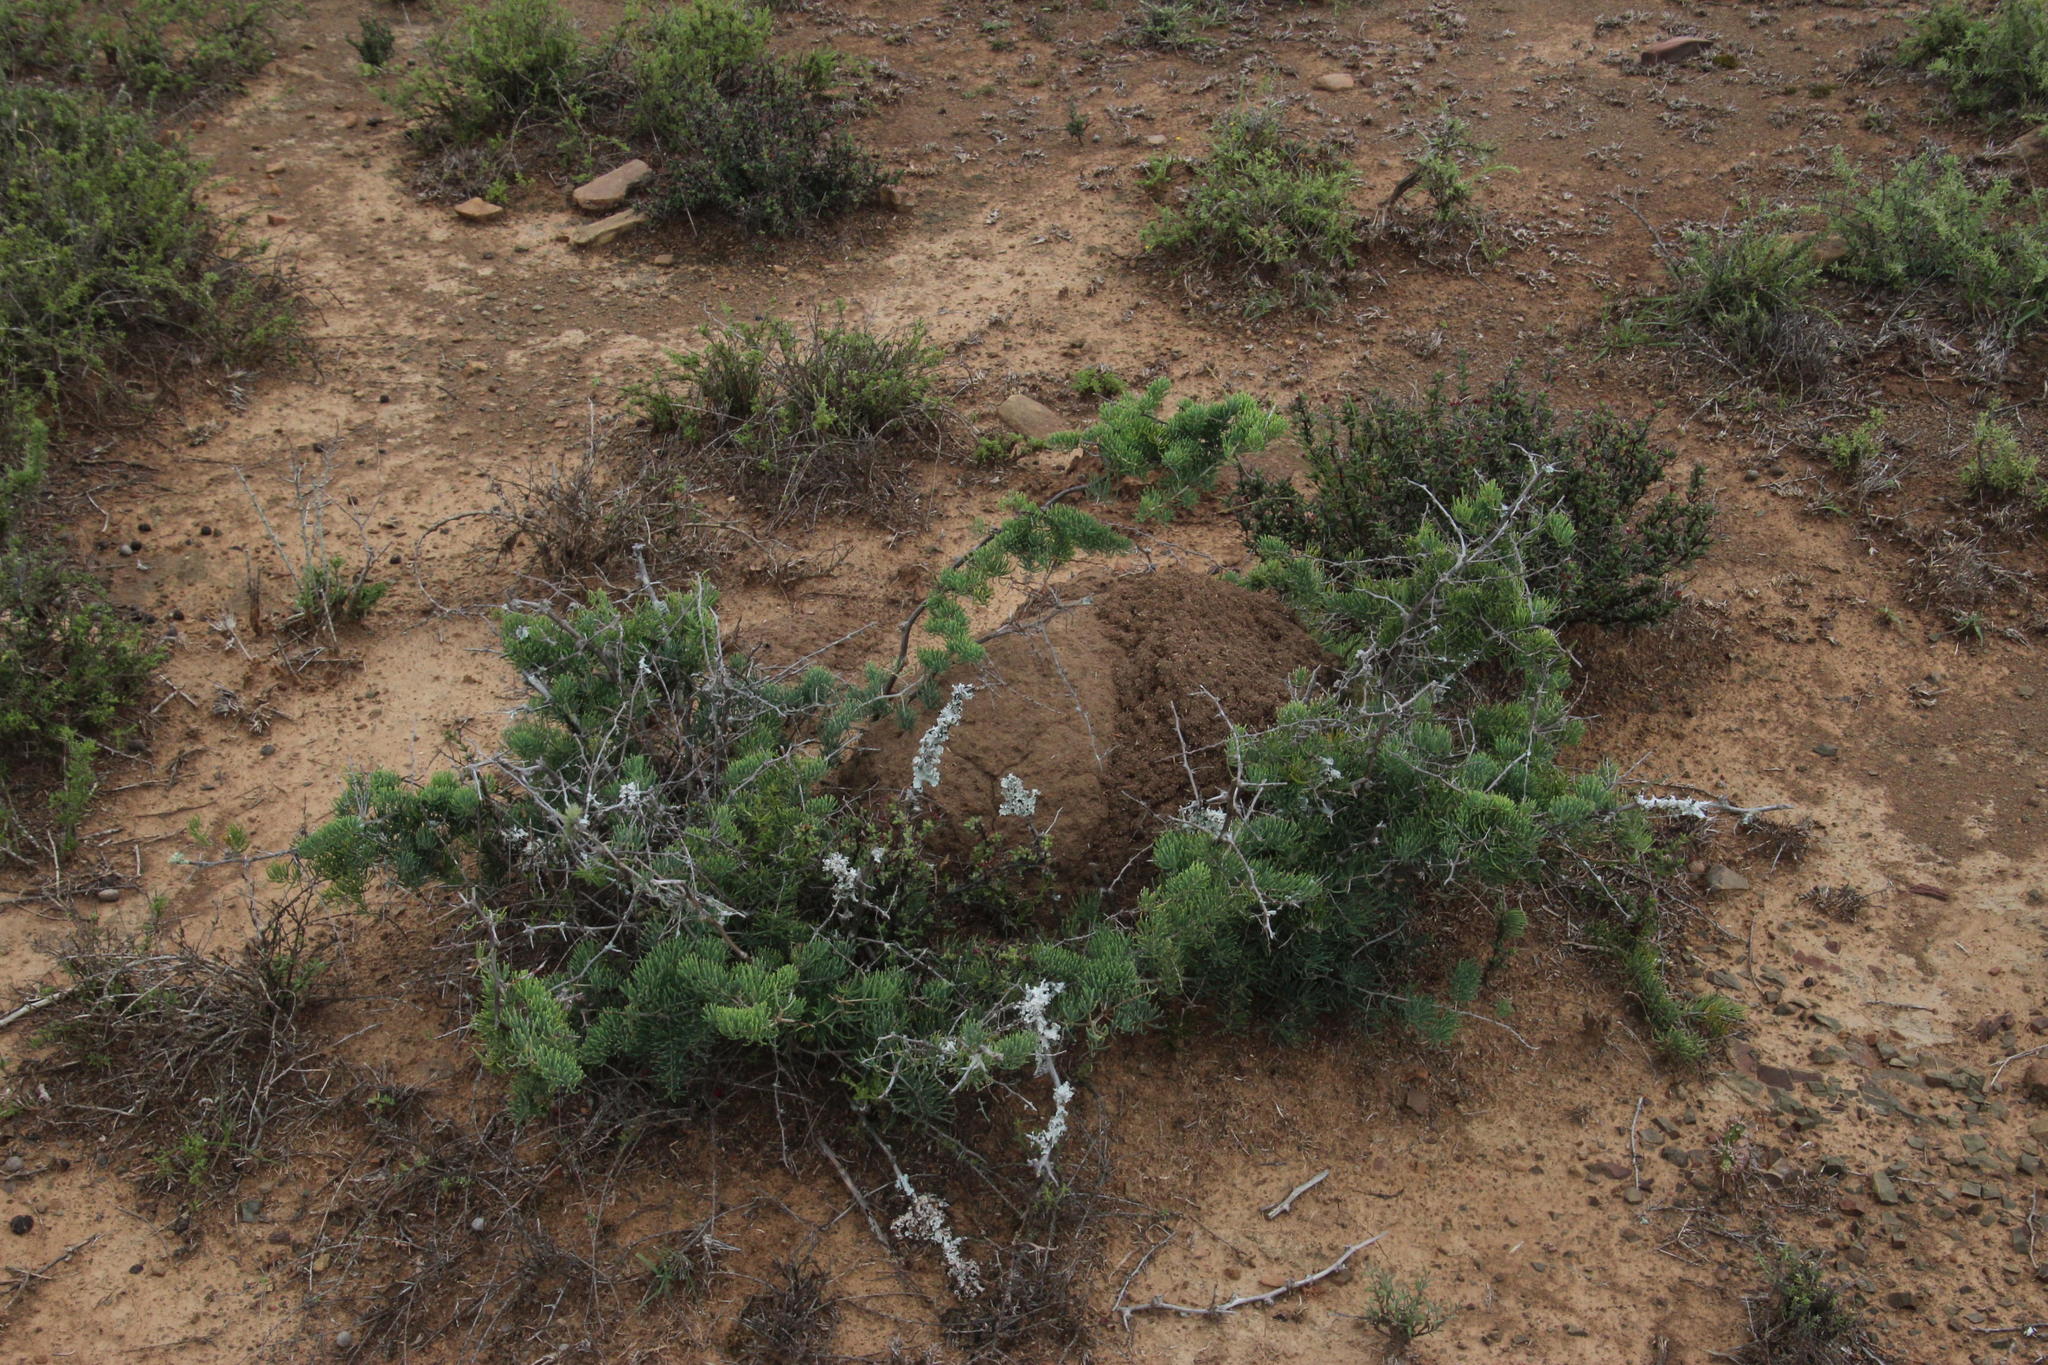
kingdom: Plantae
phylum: Tracheophyta
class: Liliopsida
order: Asparagales
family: Asparagaceae
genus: Asparagus
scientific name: Asparagus crassicladus
